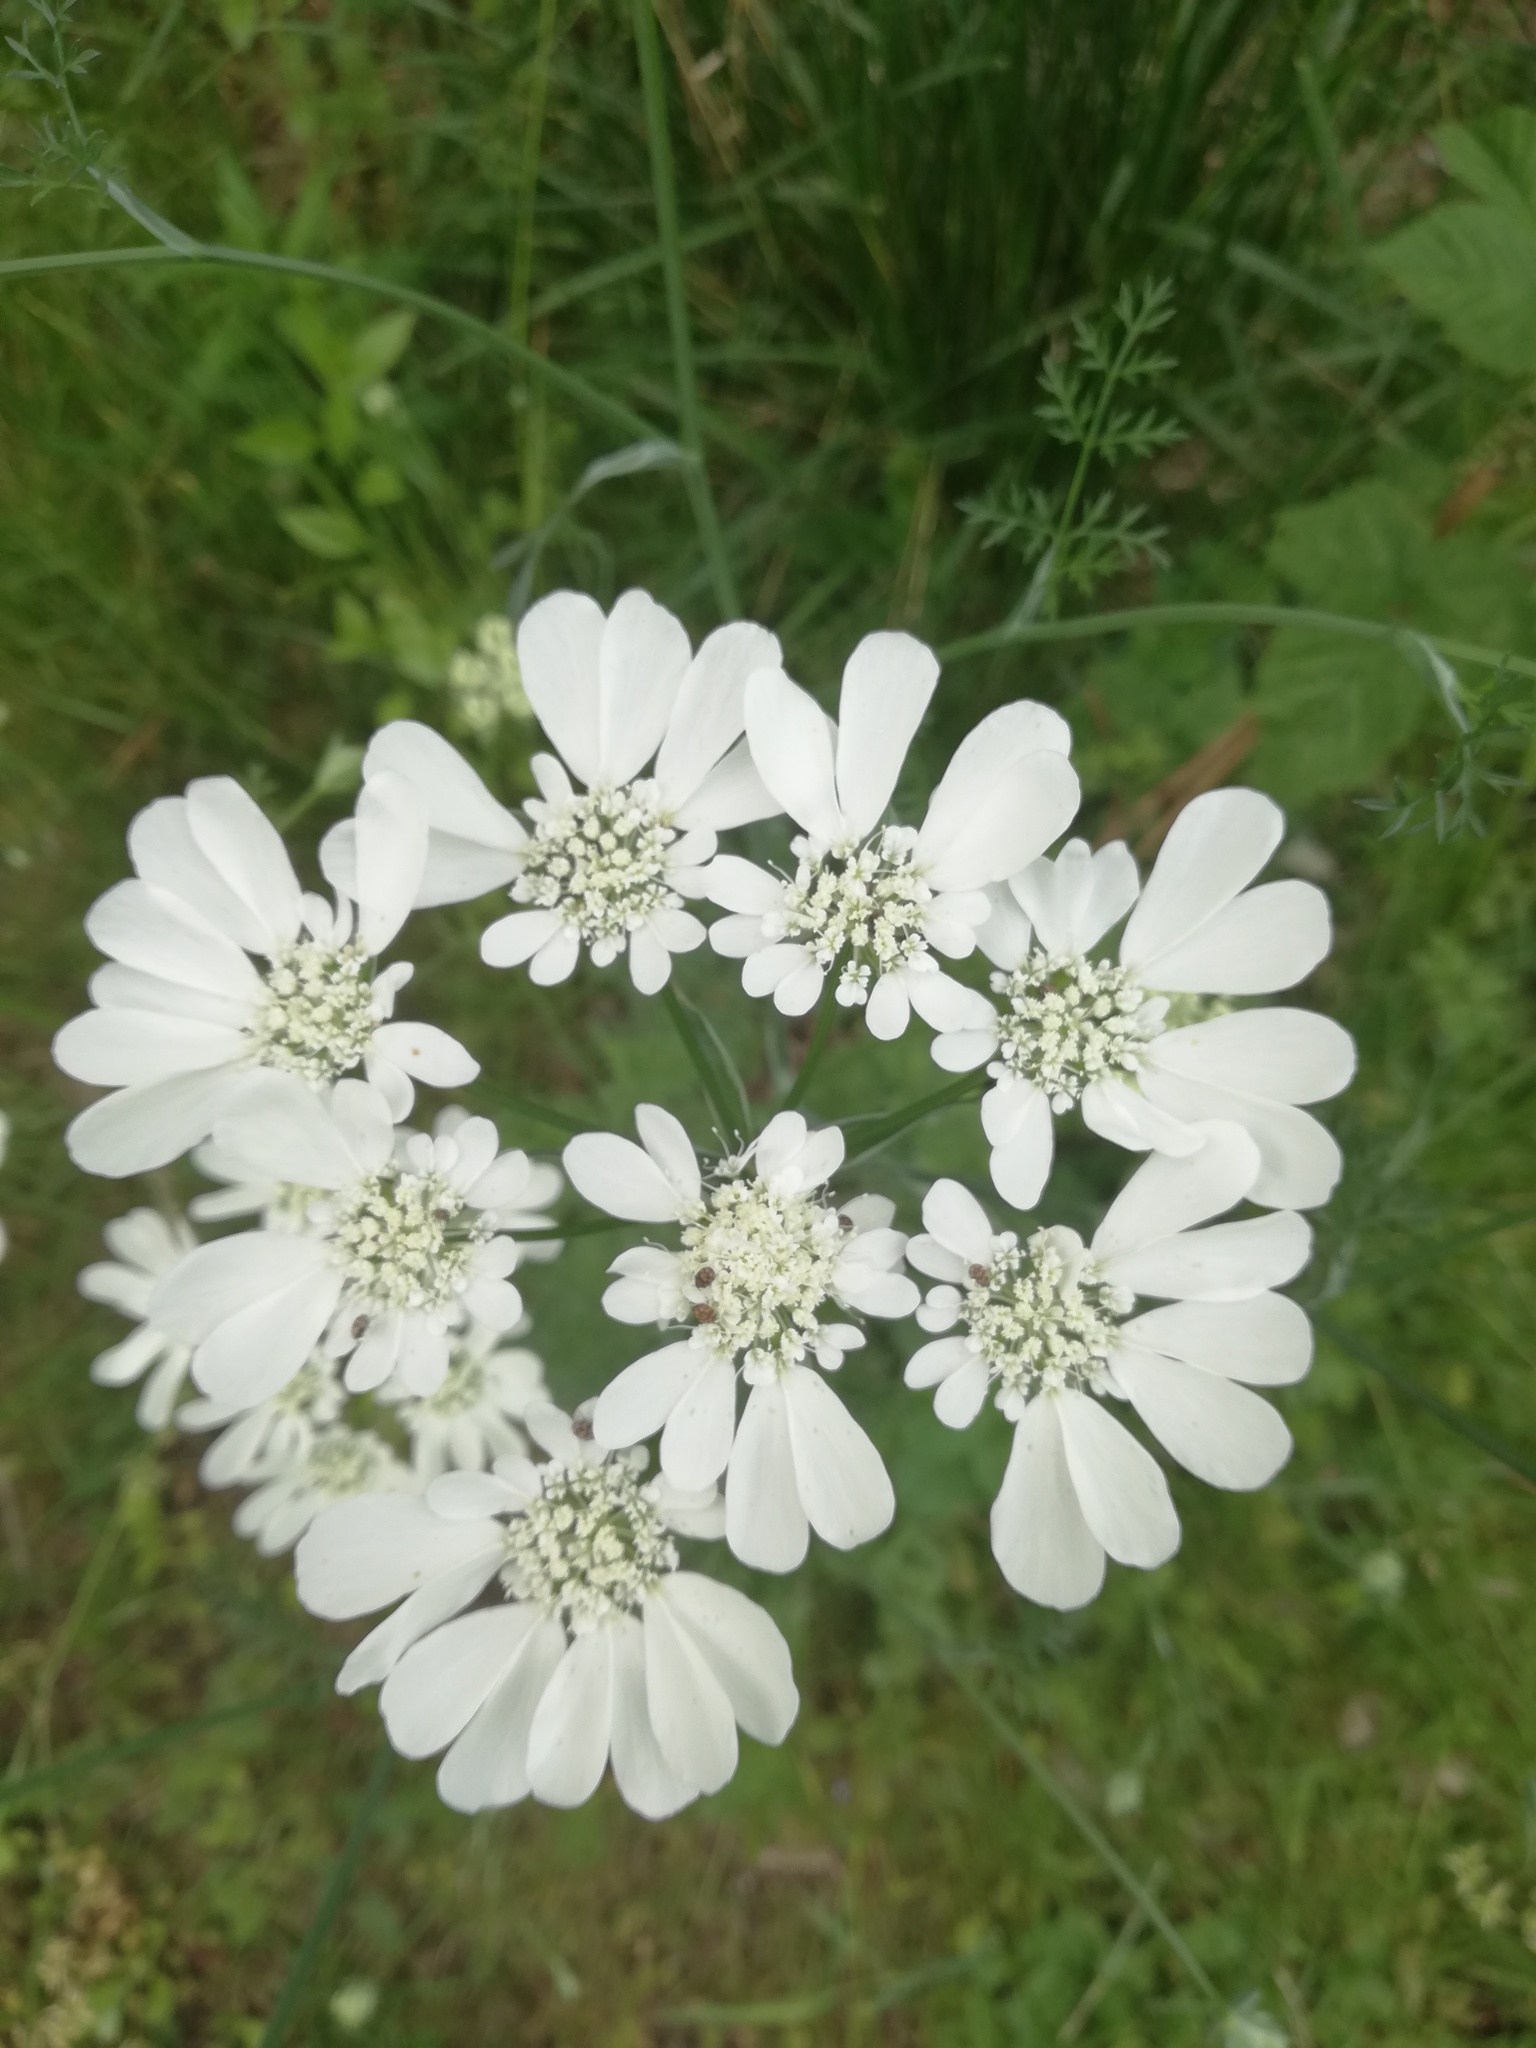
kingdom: Plantae
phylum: Tracheophyta
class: Magnoliopsida
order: Apiales
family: Apiaceae
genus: Coriandrum
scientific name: Coriandrum sativum
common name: Coriander
